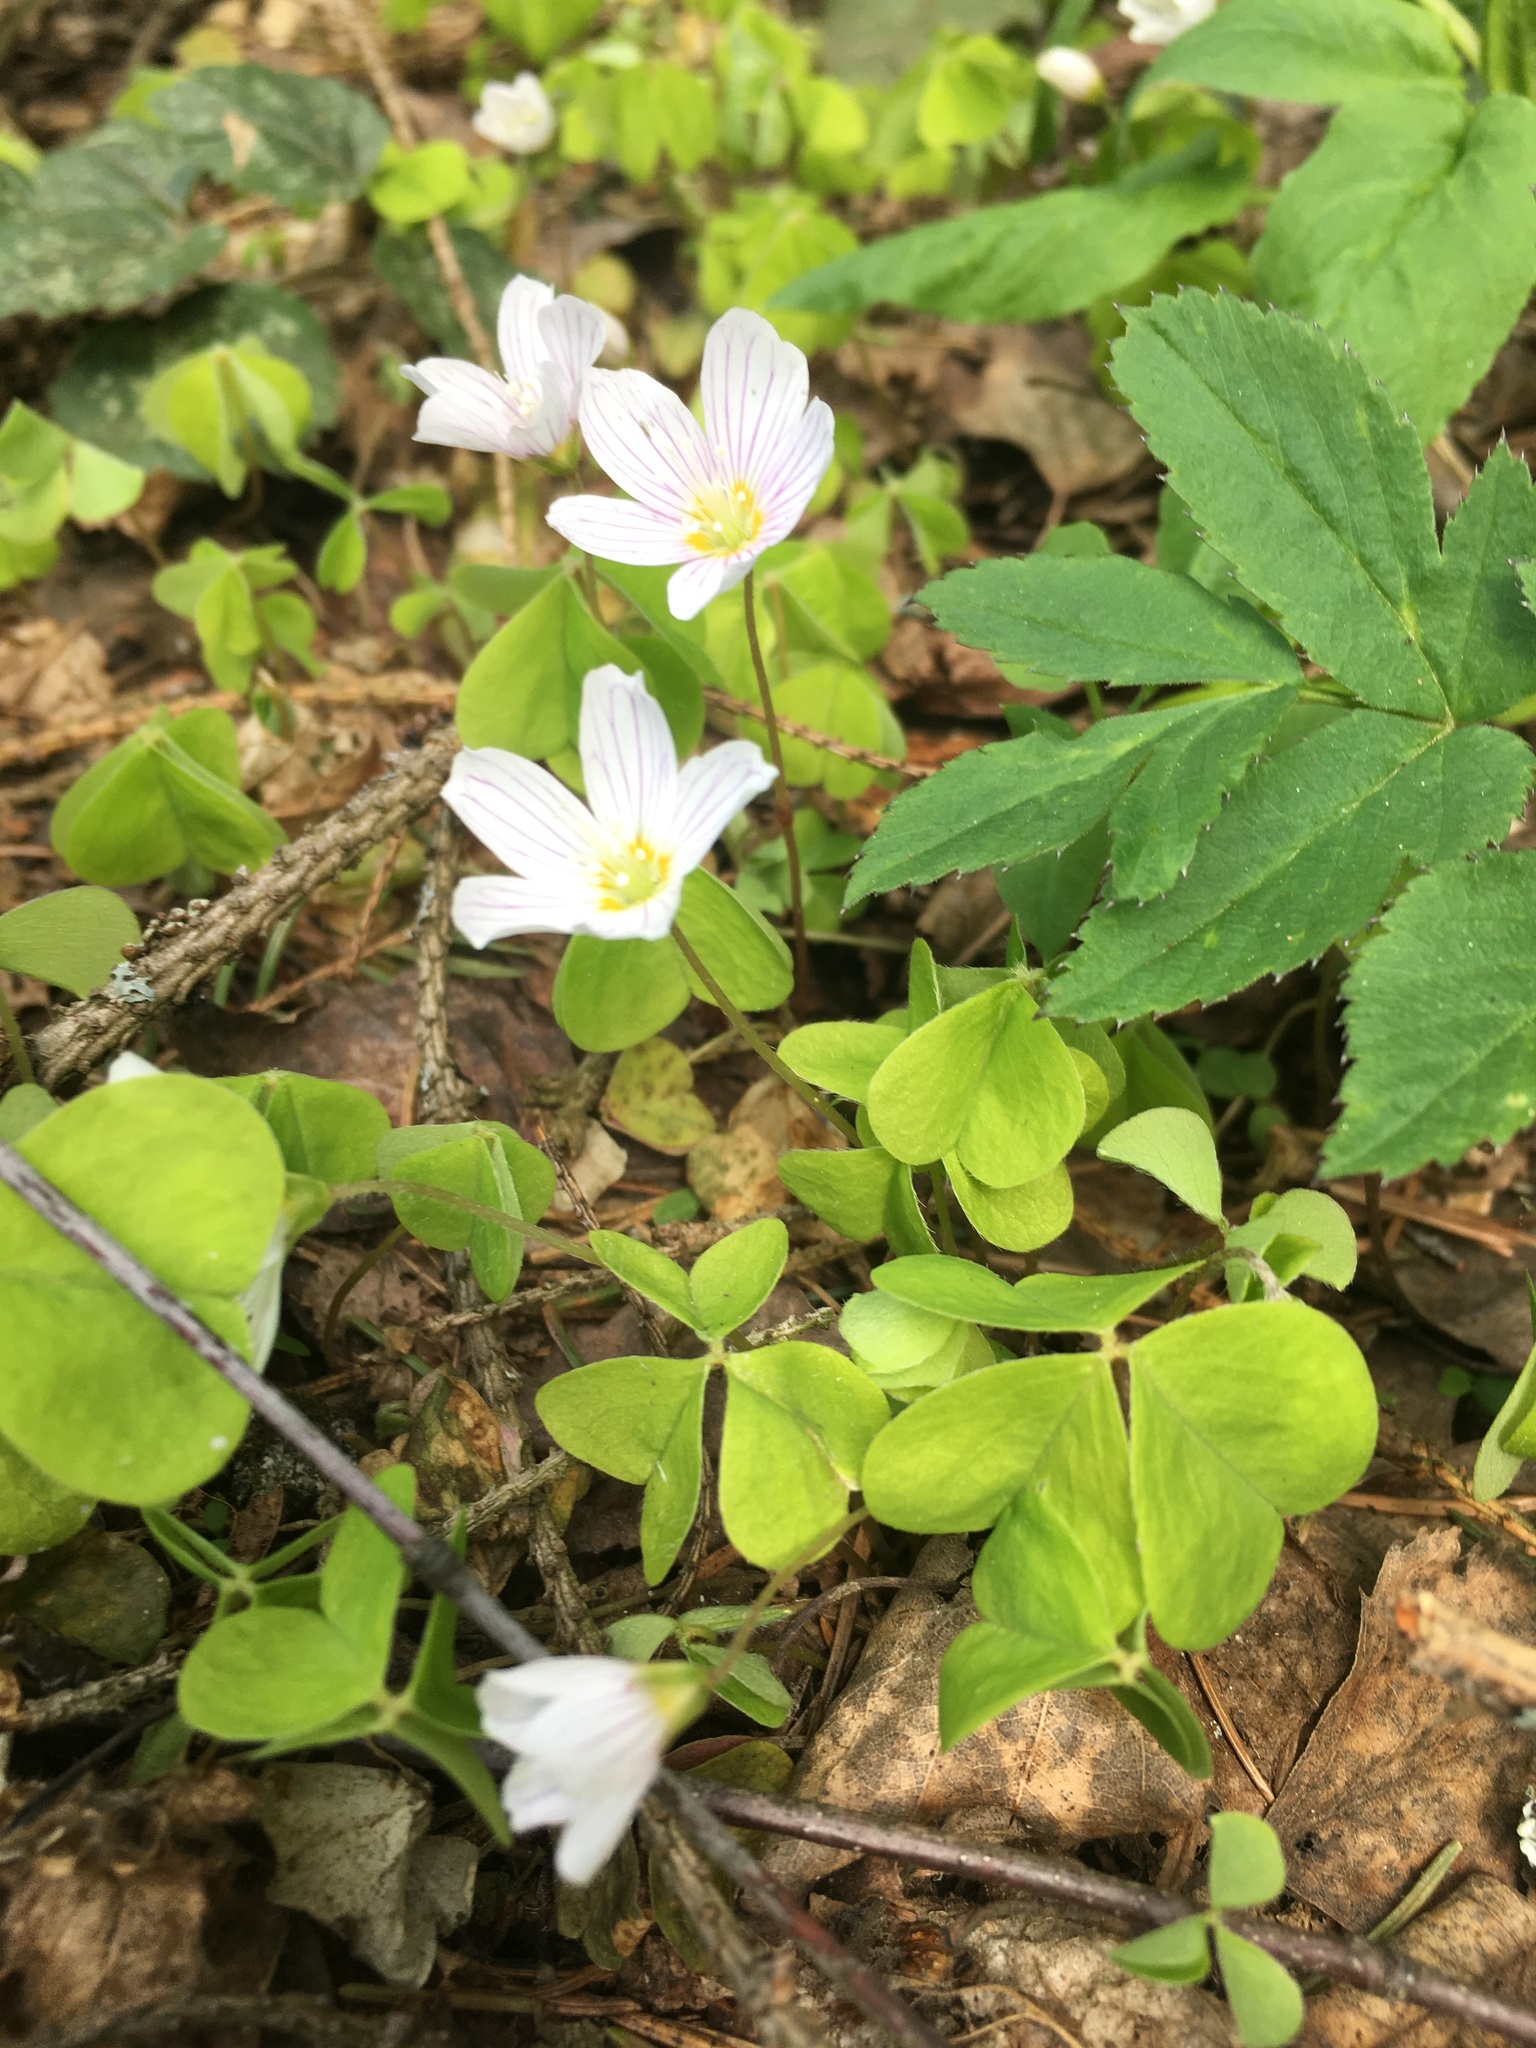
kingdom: Plantae
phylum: Tracheophyta
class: Magnoliopsida
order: Oxalidales
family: Oxalidaceae
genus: Oxalis
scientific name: Oxalis acetosella
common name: Wood-sorrel
